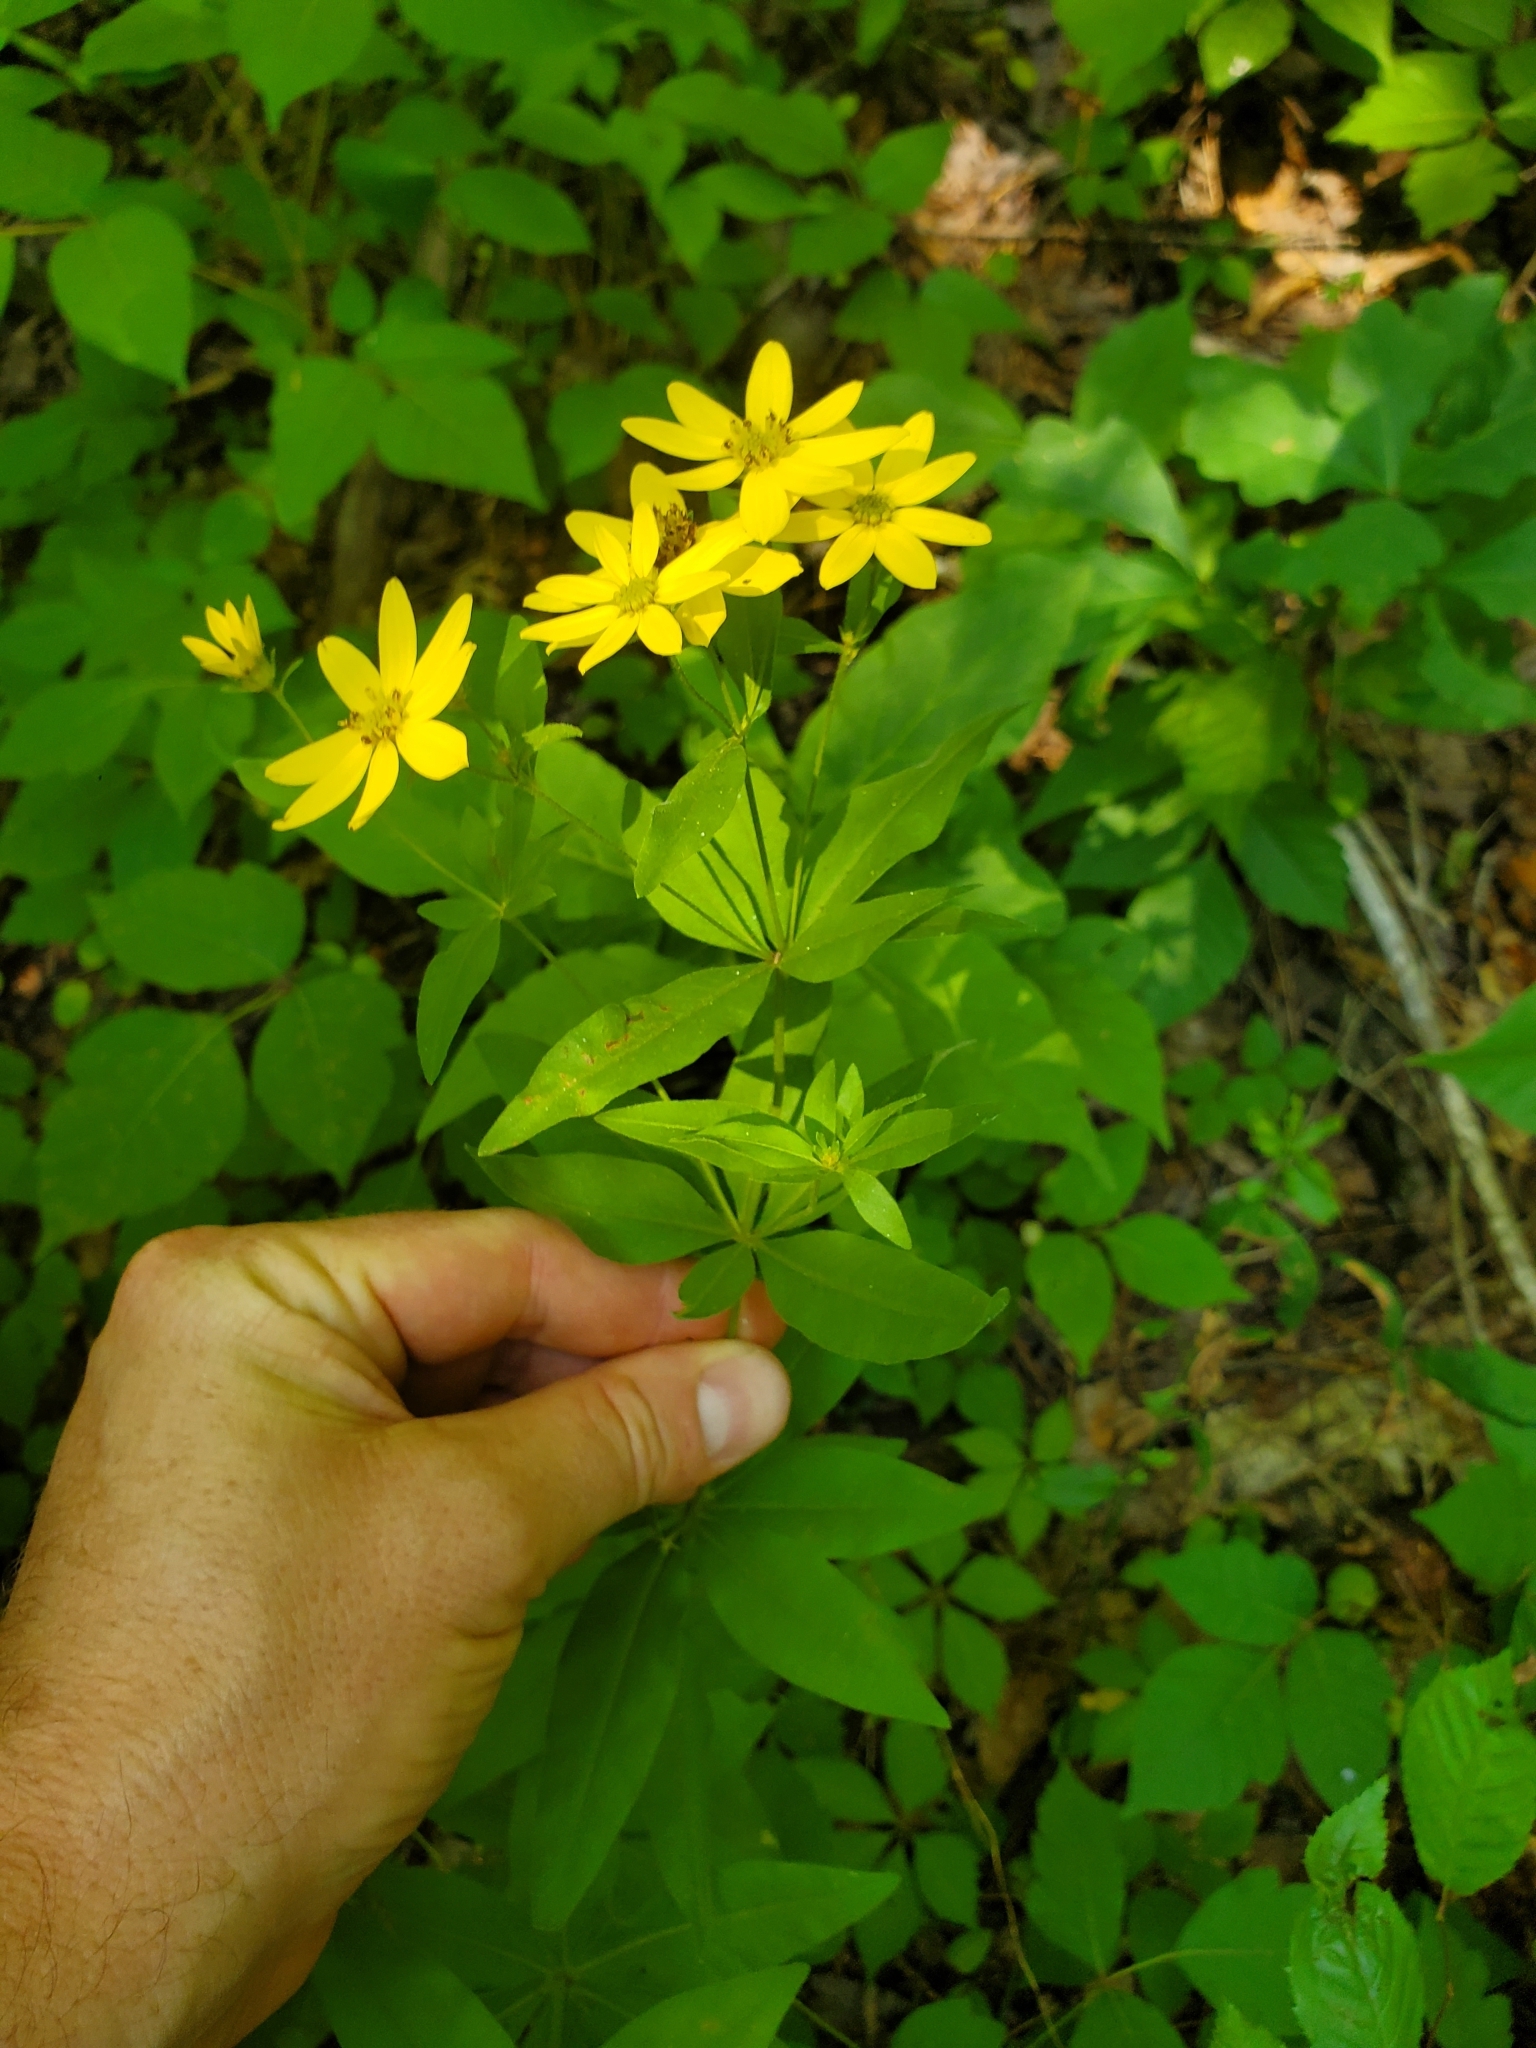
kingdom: Plantae
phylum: Tracheophyta
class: Magnoliopsida
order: Asterales
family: Asteraceae
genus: Coreopsis
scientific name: Coreopsis major
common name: Forest tickseed
